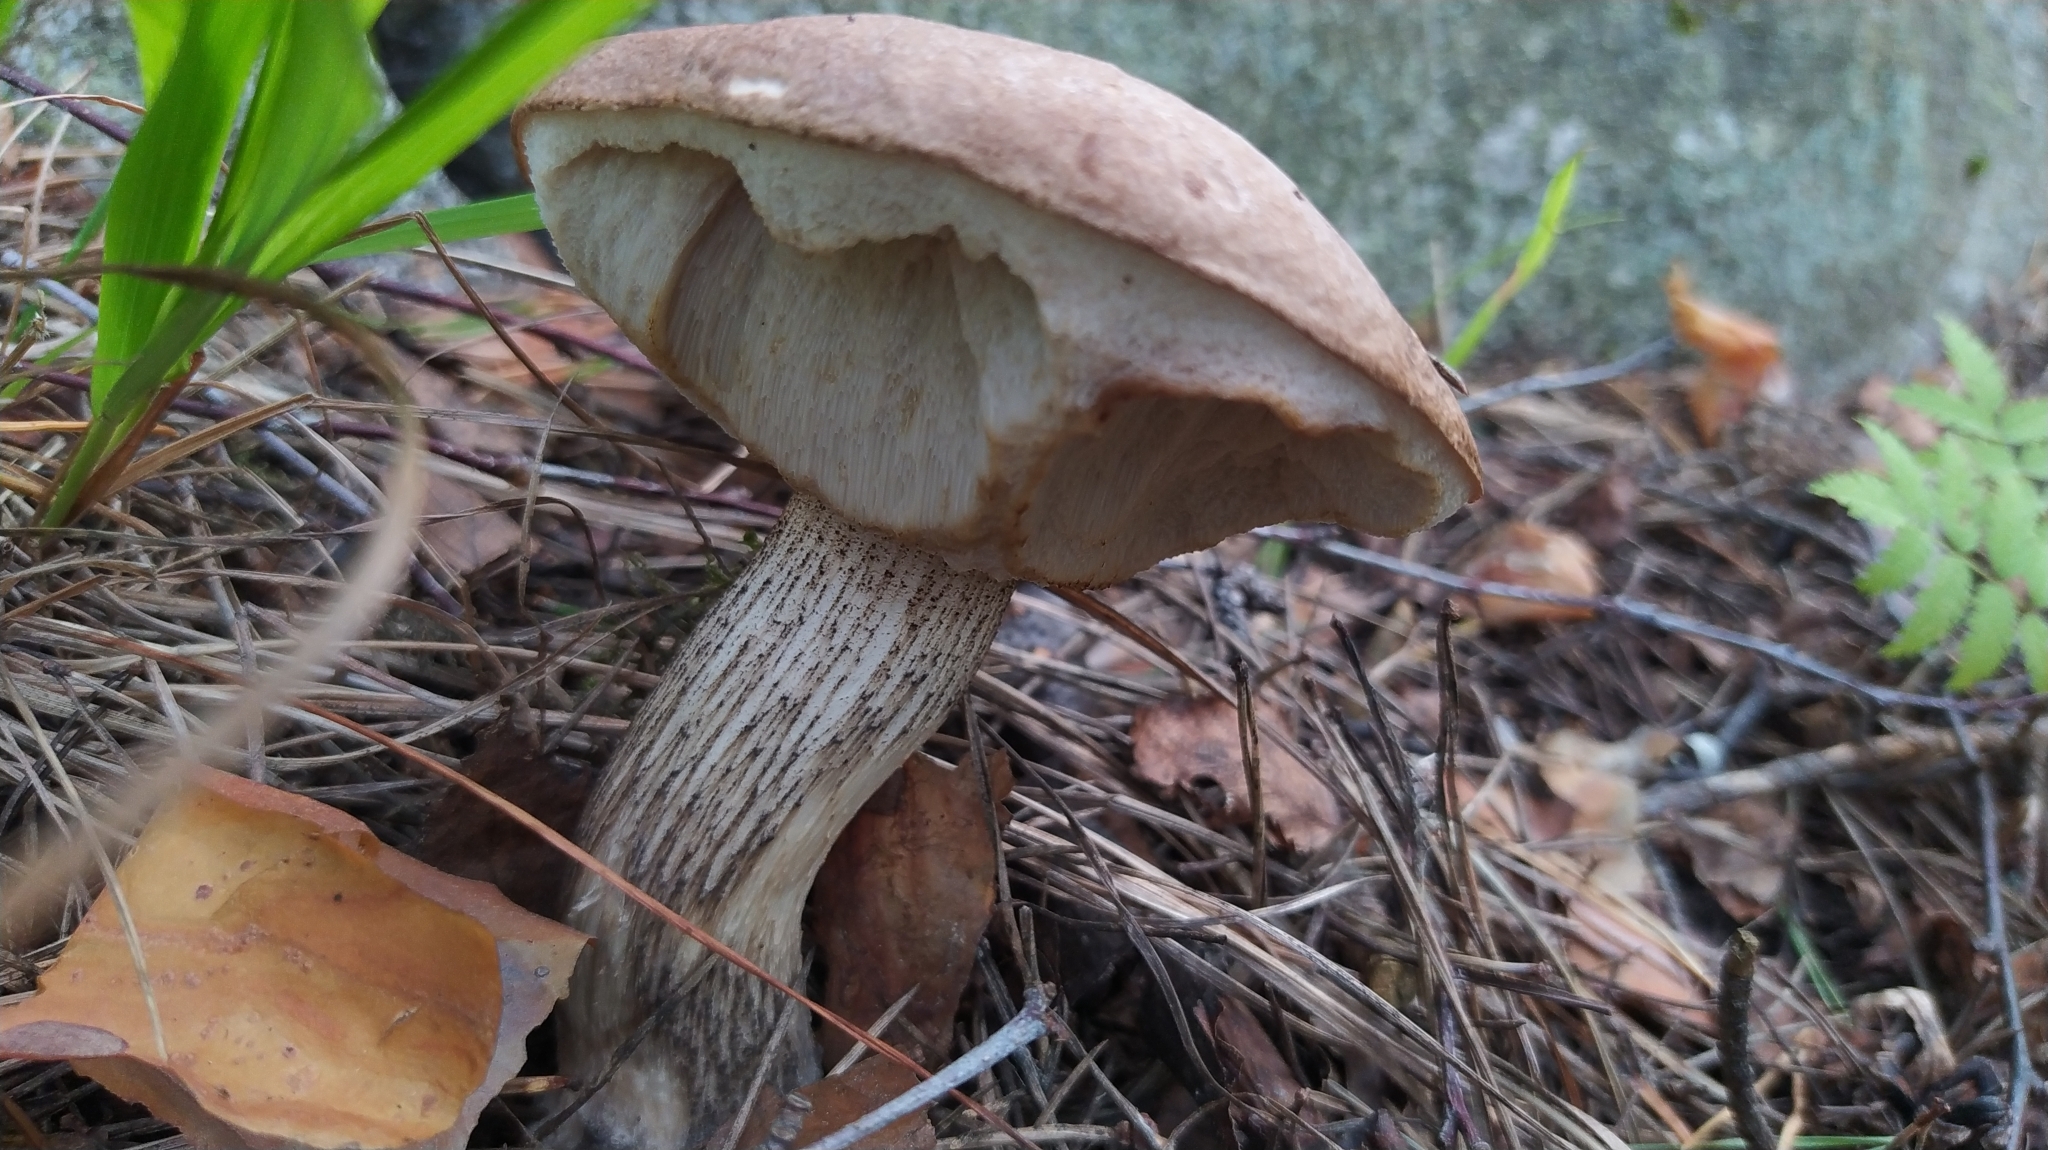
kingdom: Fungi
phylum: Basidiomycota
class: Agaricomycetes
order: Boletales
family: Boletaceae
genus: Leccinum
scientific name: Leccinum scabrum
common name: Blushing bolete
